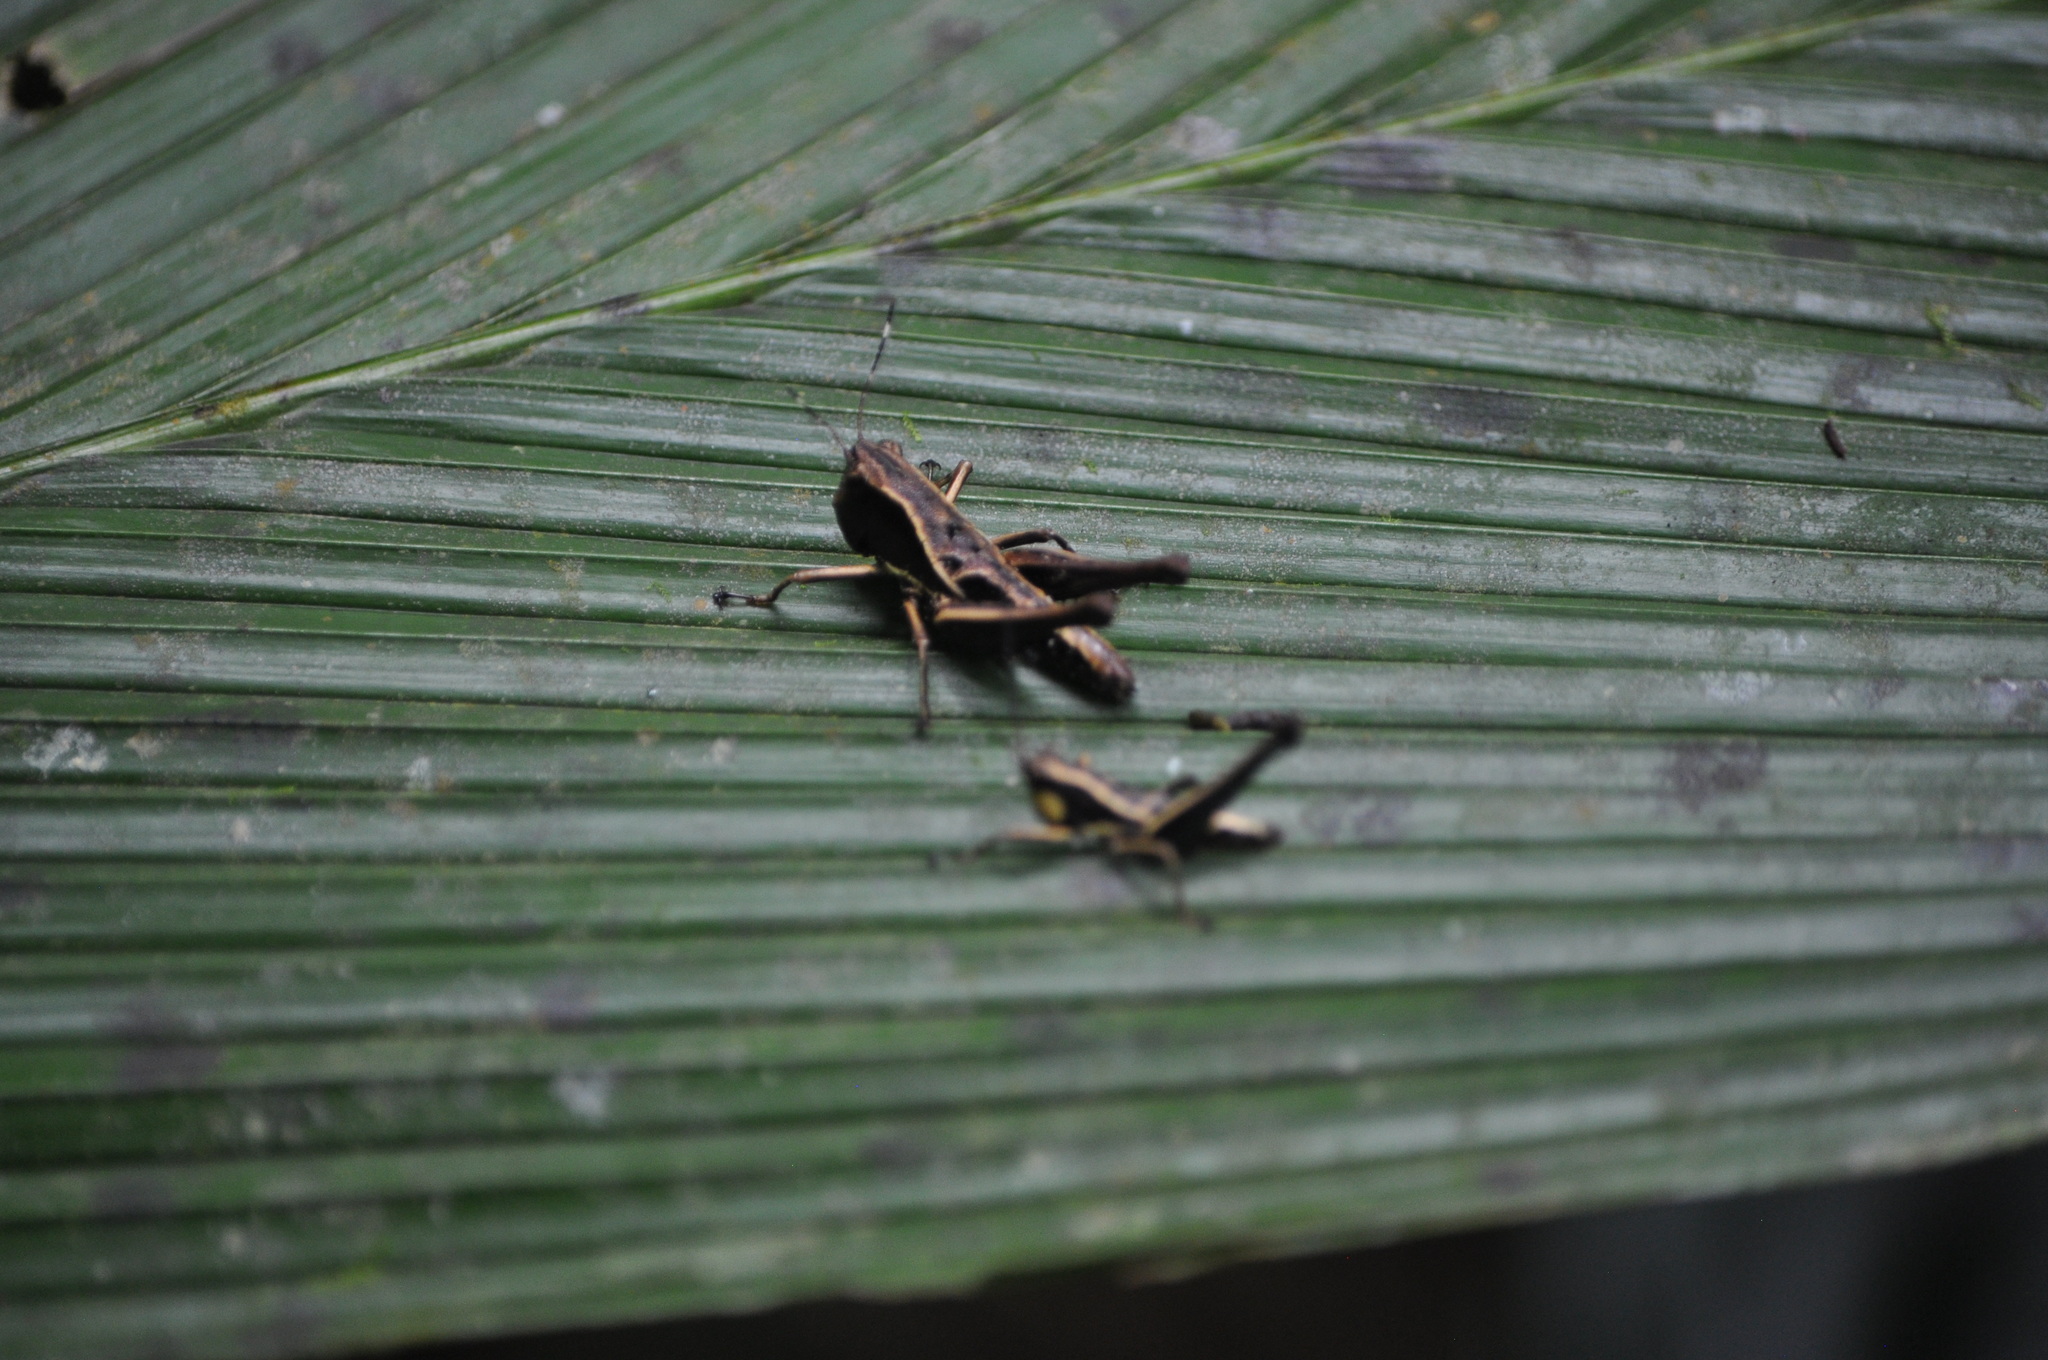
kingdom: Animalia
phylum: Arthropoda
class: Insecta
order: Orthoptera
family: Acrididae
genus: Microtylopteryx
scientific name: Microtylopteryx hebardi
